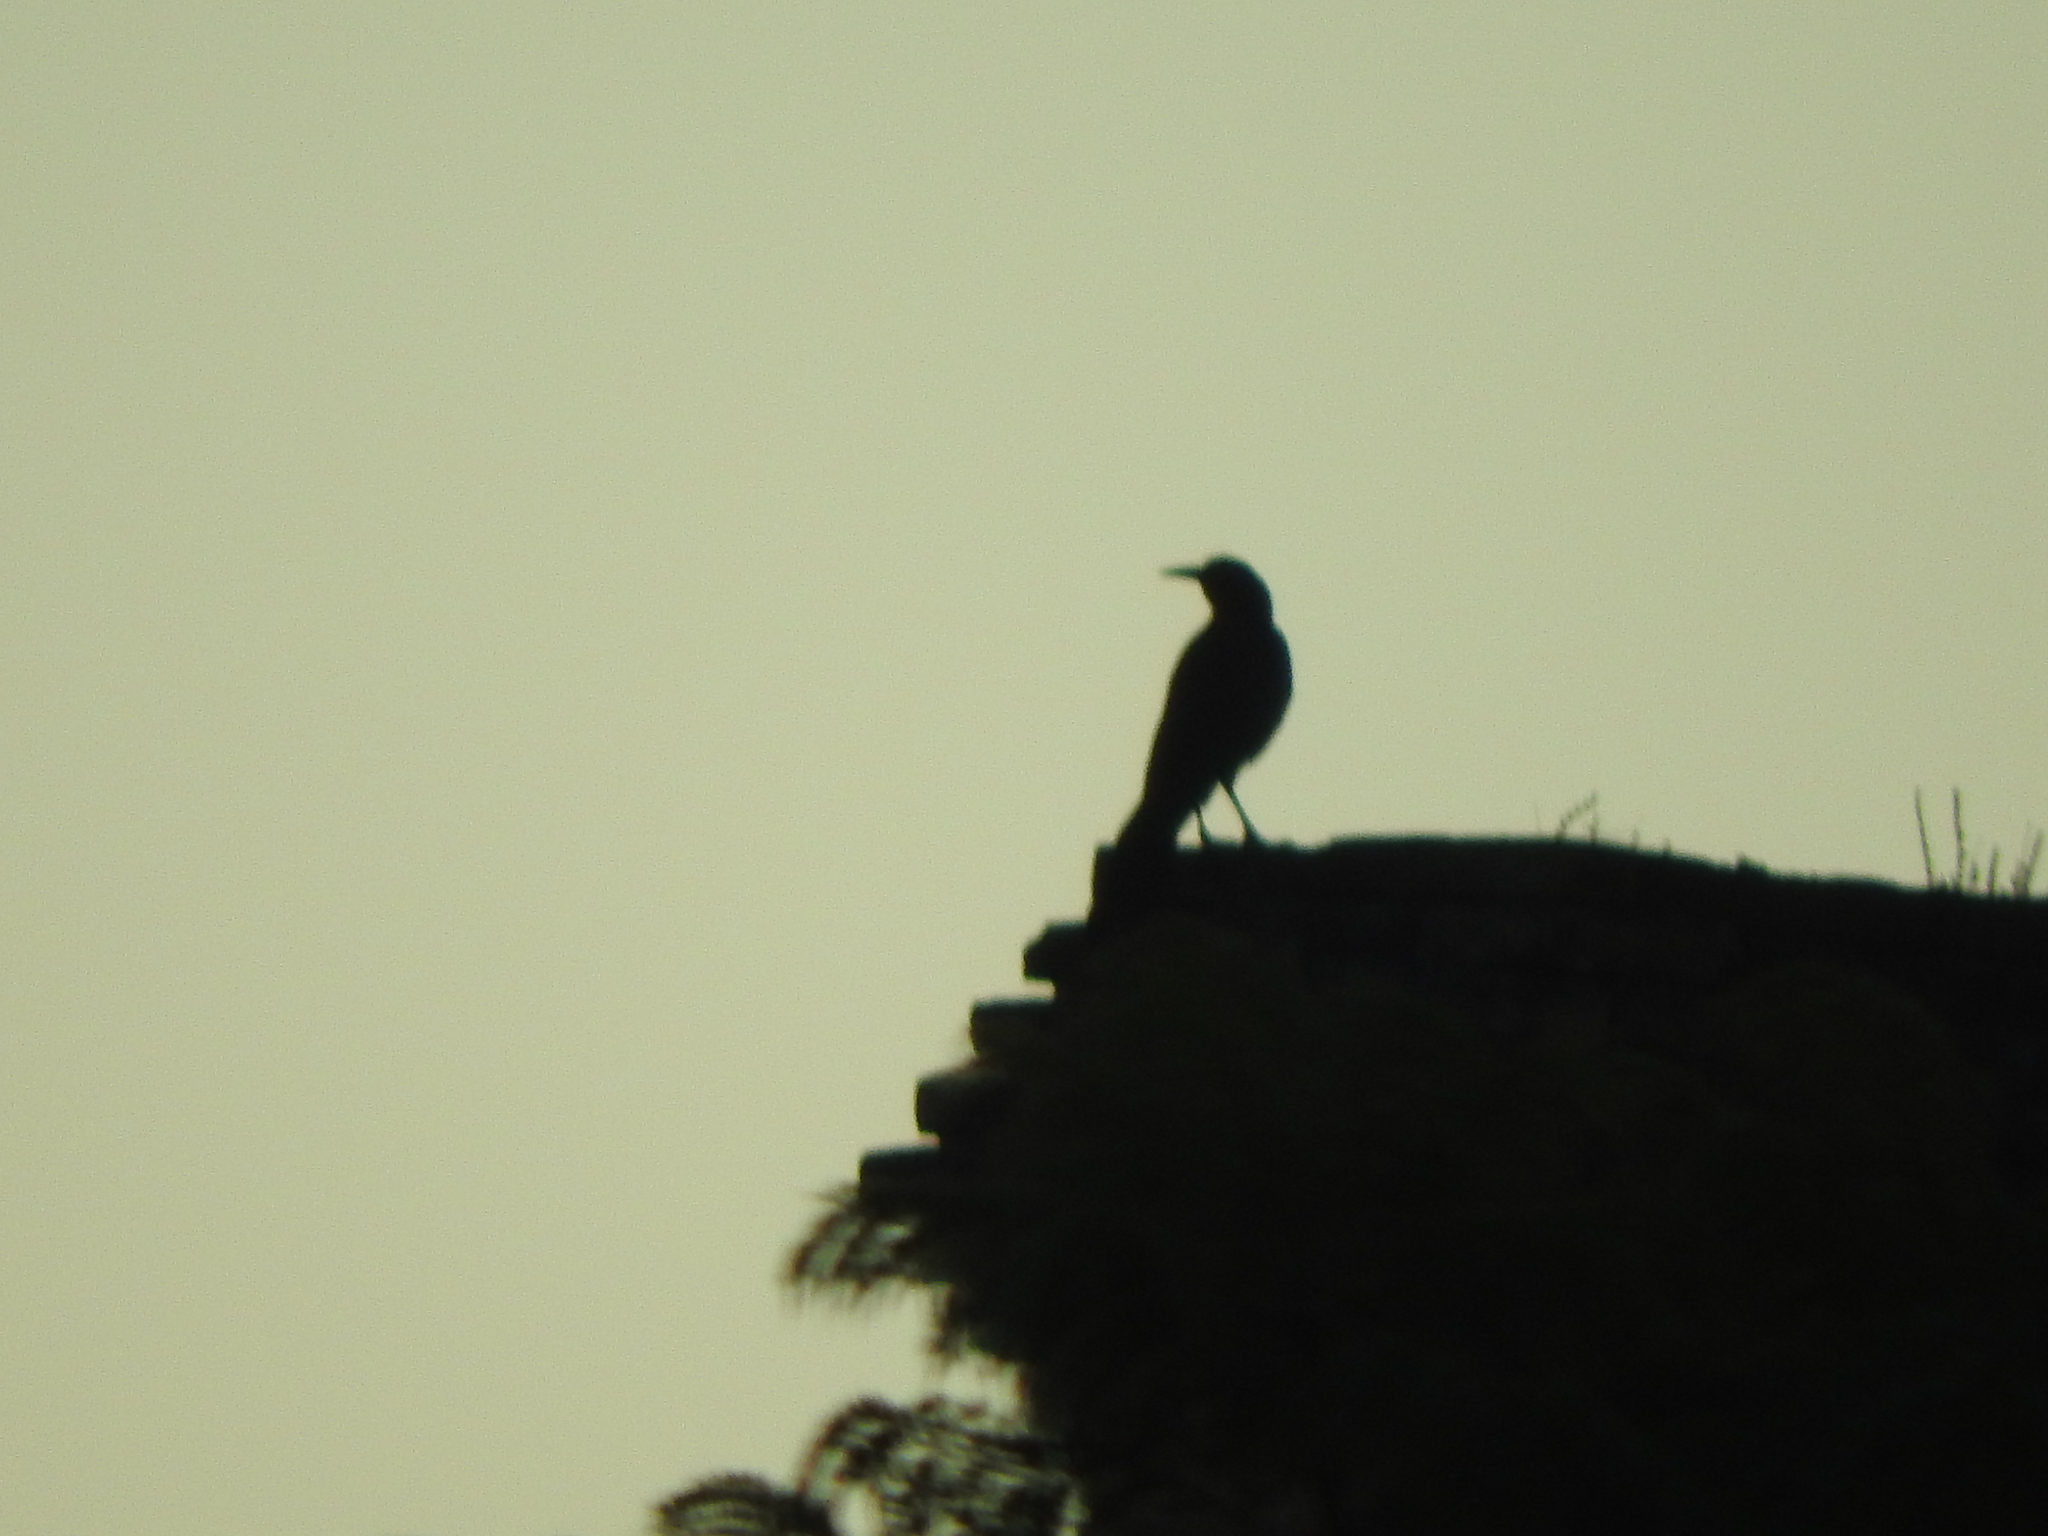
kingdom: Animalia
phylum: Chordata
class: Aves
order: Passeriformes
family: Icteridae
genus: Quiscalus
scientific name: Quiscalus mexicanus
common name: Great-tailed grackle
